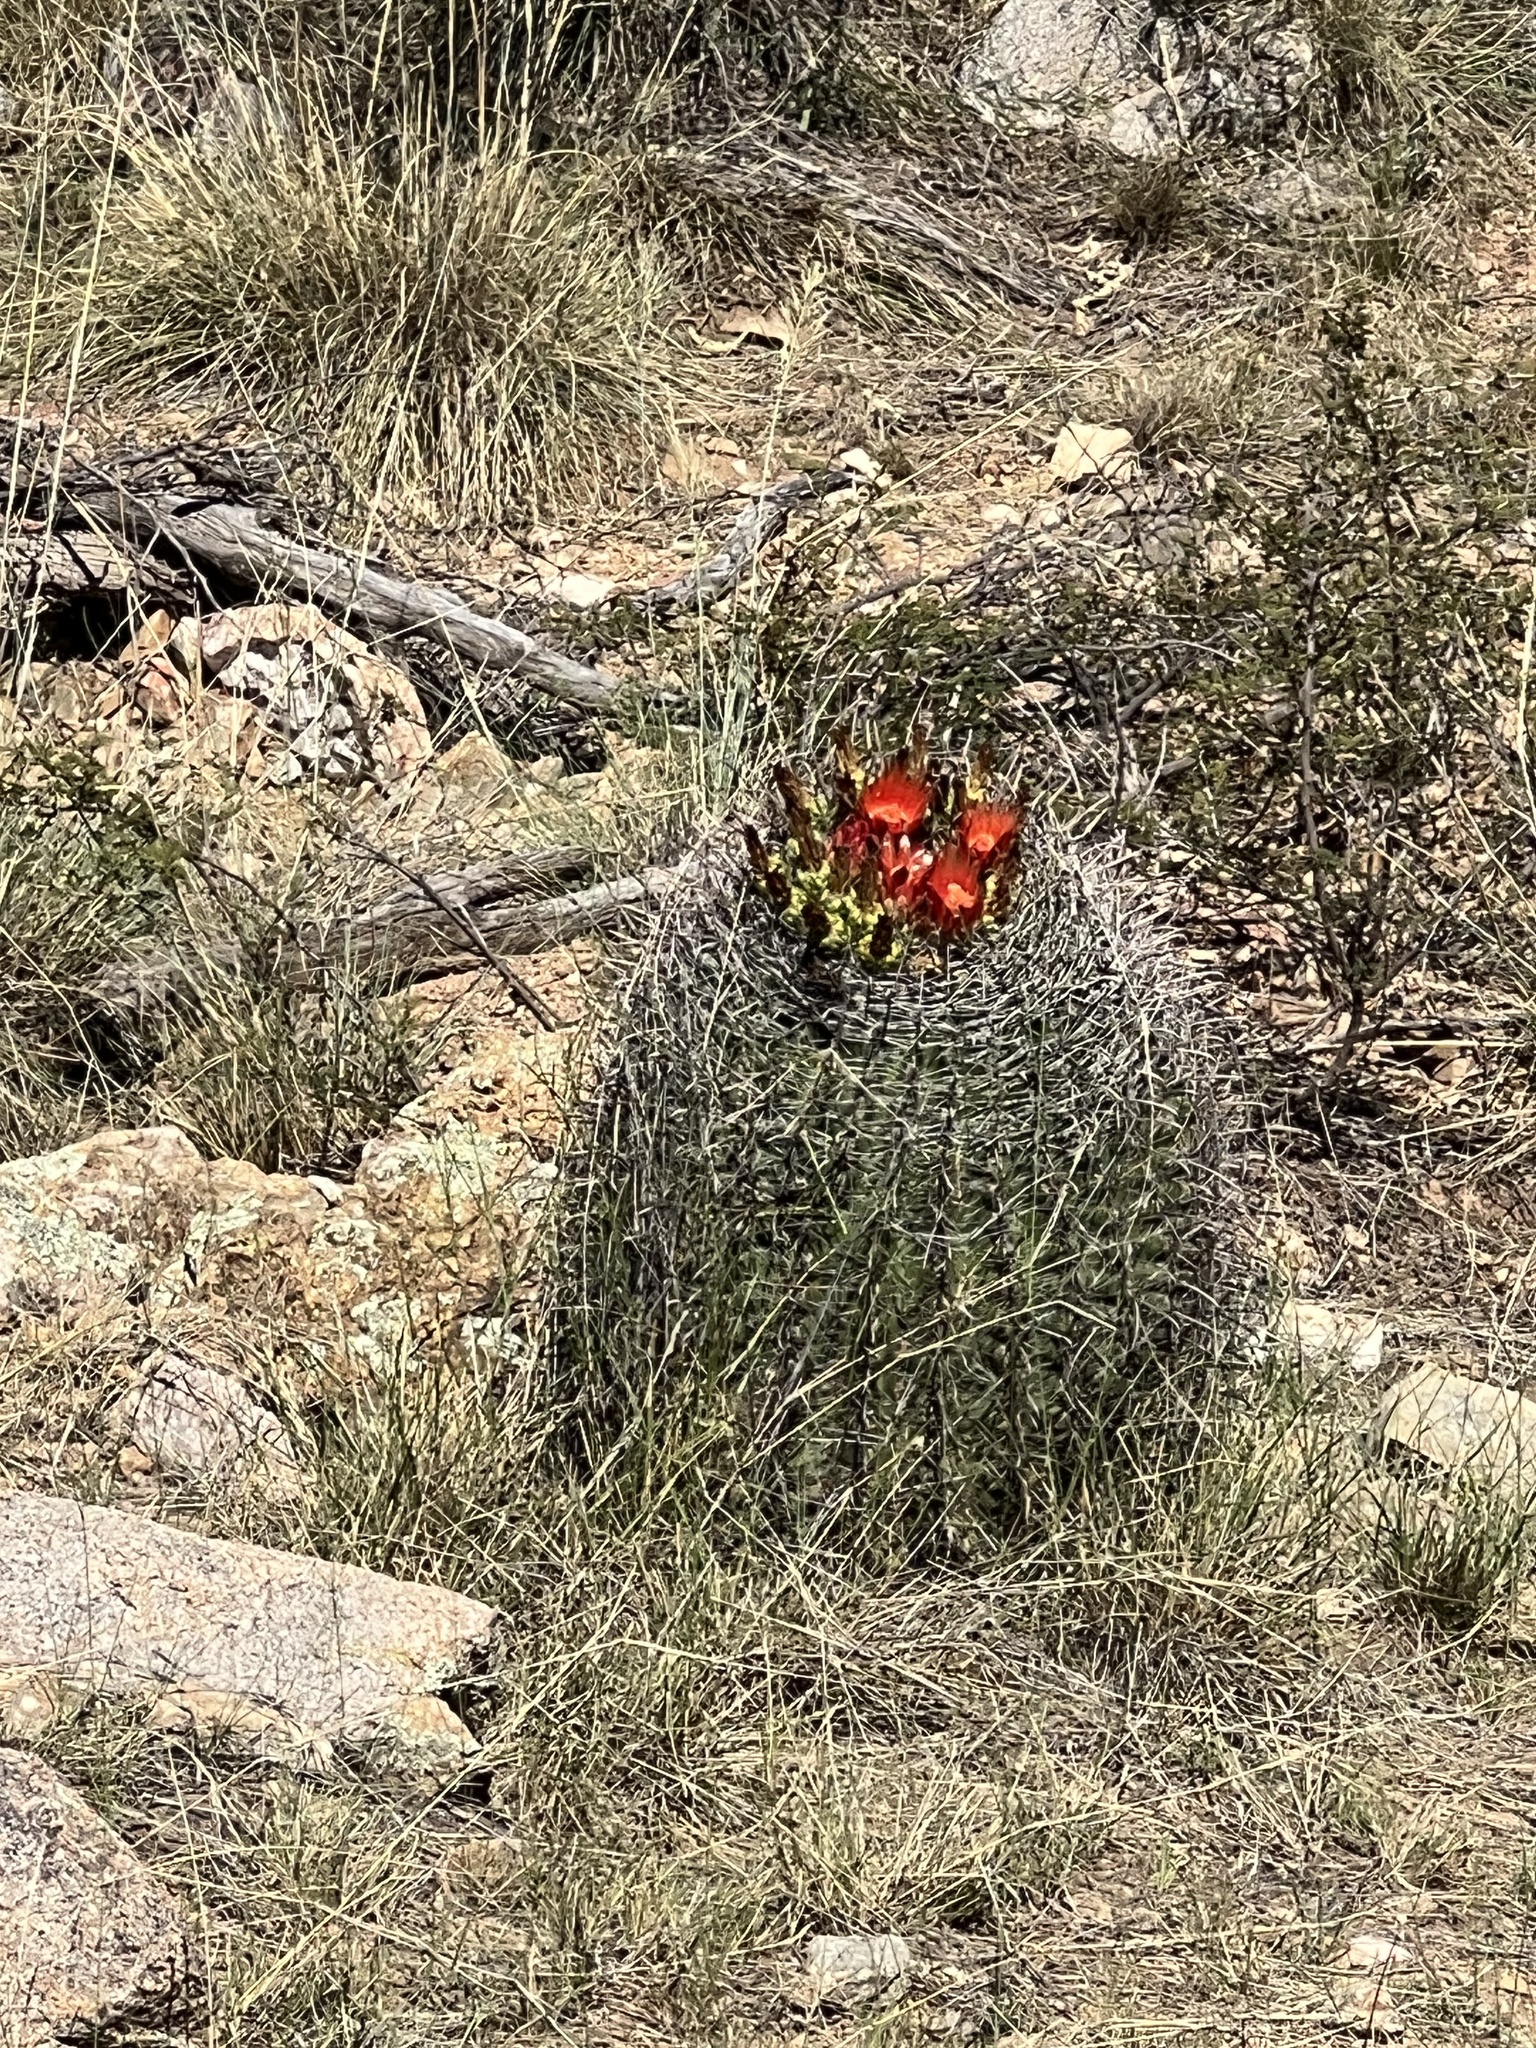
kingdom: Plantae
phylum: Tracheophyta
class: Magnoliopsida
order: Caryophyllales
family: Cactaceae
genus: Ferocactus
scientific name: Ferocactus wislizeni
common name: Candy barrel cactus
